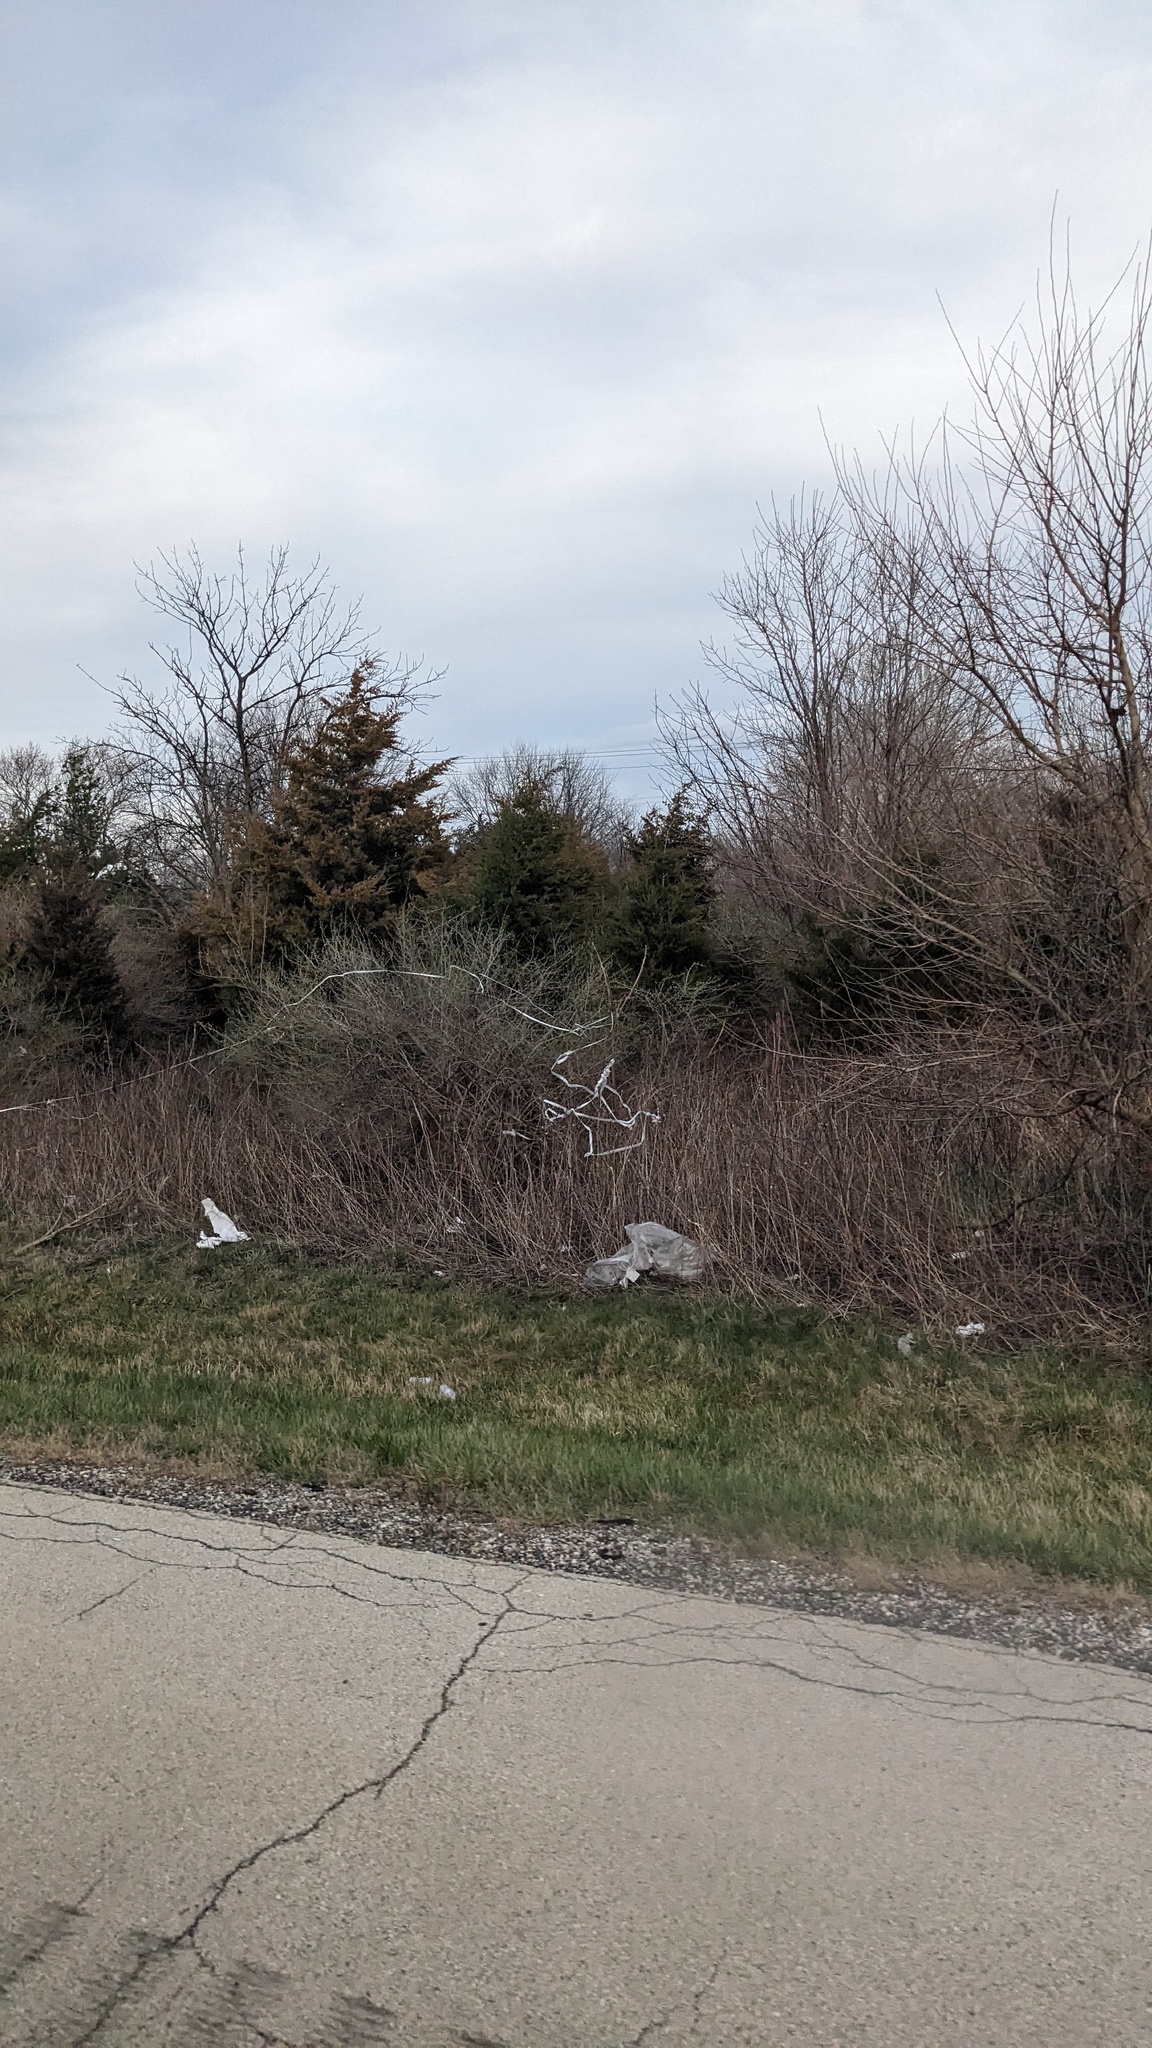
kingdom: Plantae
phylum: Tracheophyta
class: Pinopsida
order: Pinales
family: Cupressaceae
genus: Juniperus
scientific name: Juniperus virginiana
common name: Red juniper
